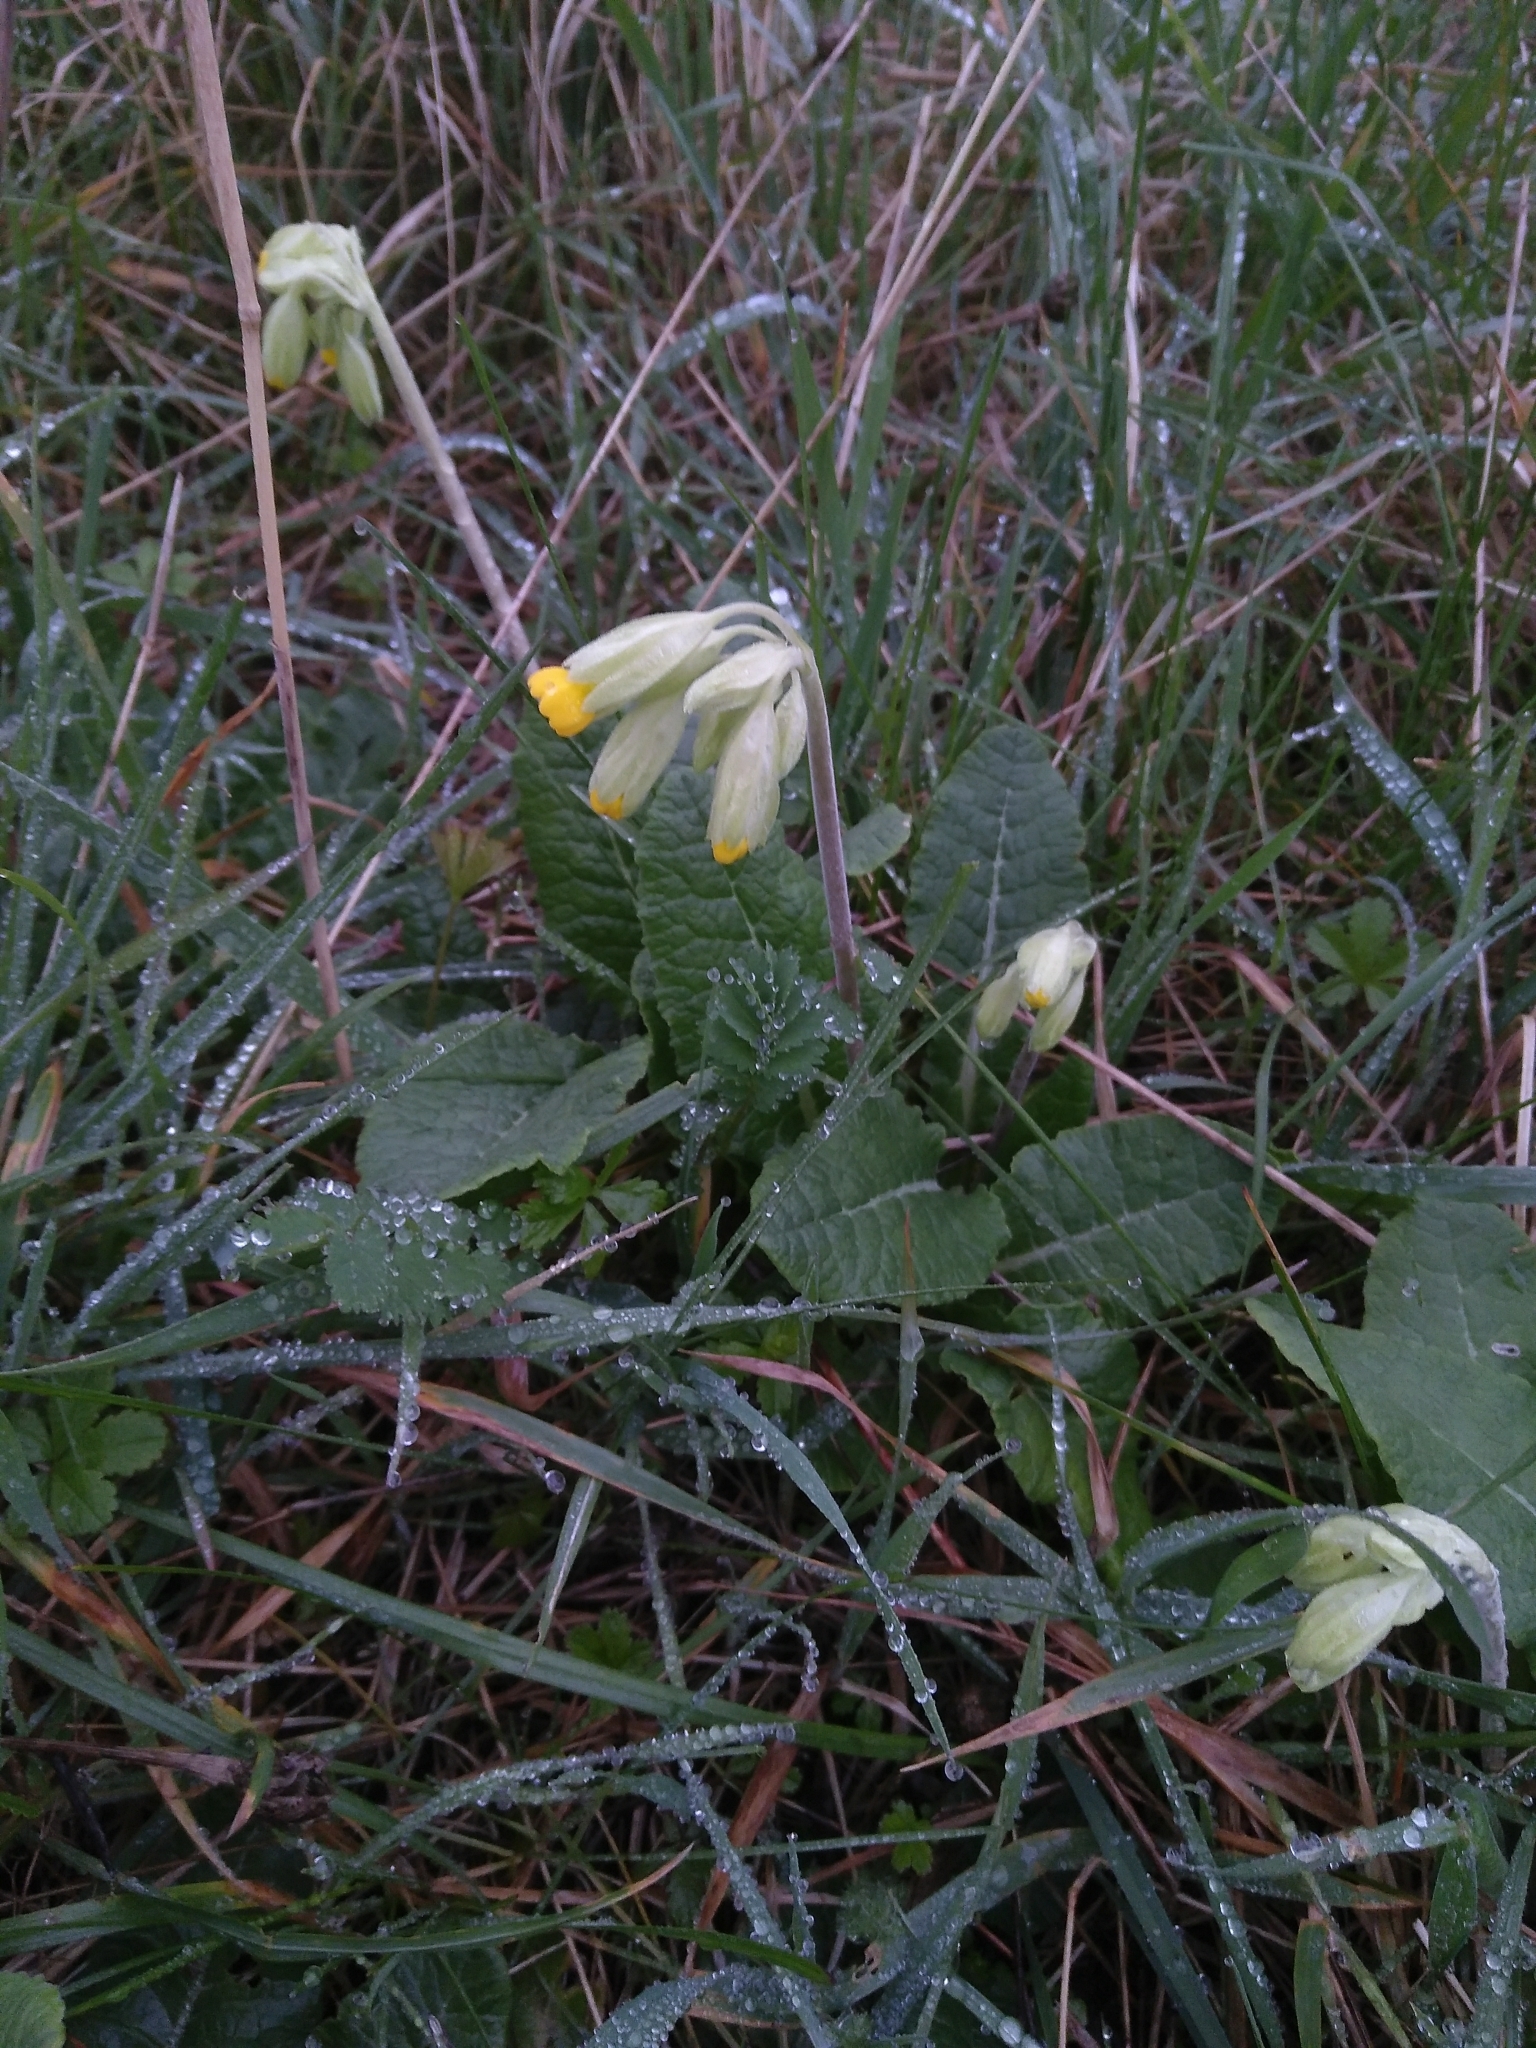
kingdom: Plantae
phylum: Tracheophyta
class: Magnoliopsida
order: Ericales
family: Primulaceae
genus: Primula
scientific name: Primula veris
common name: Cowslip
